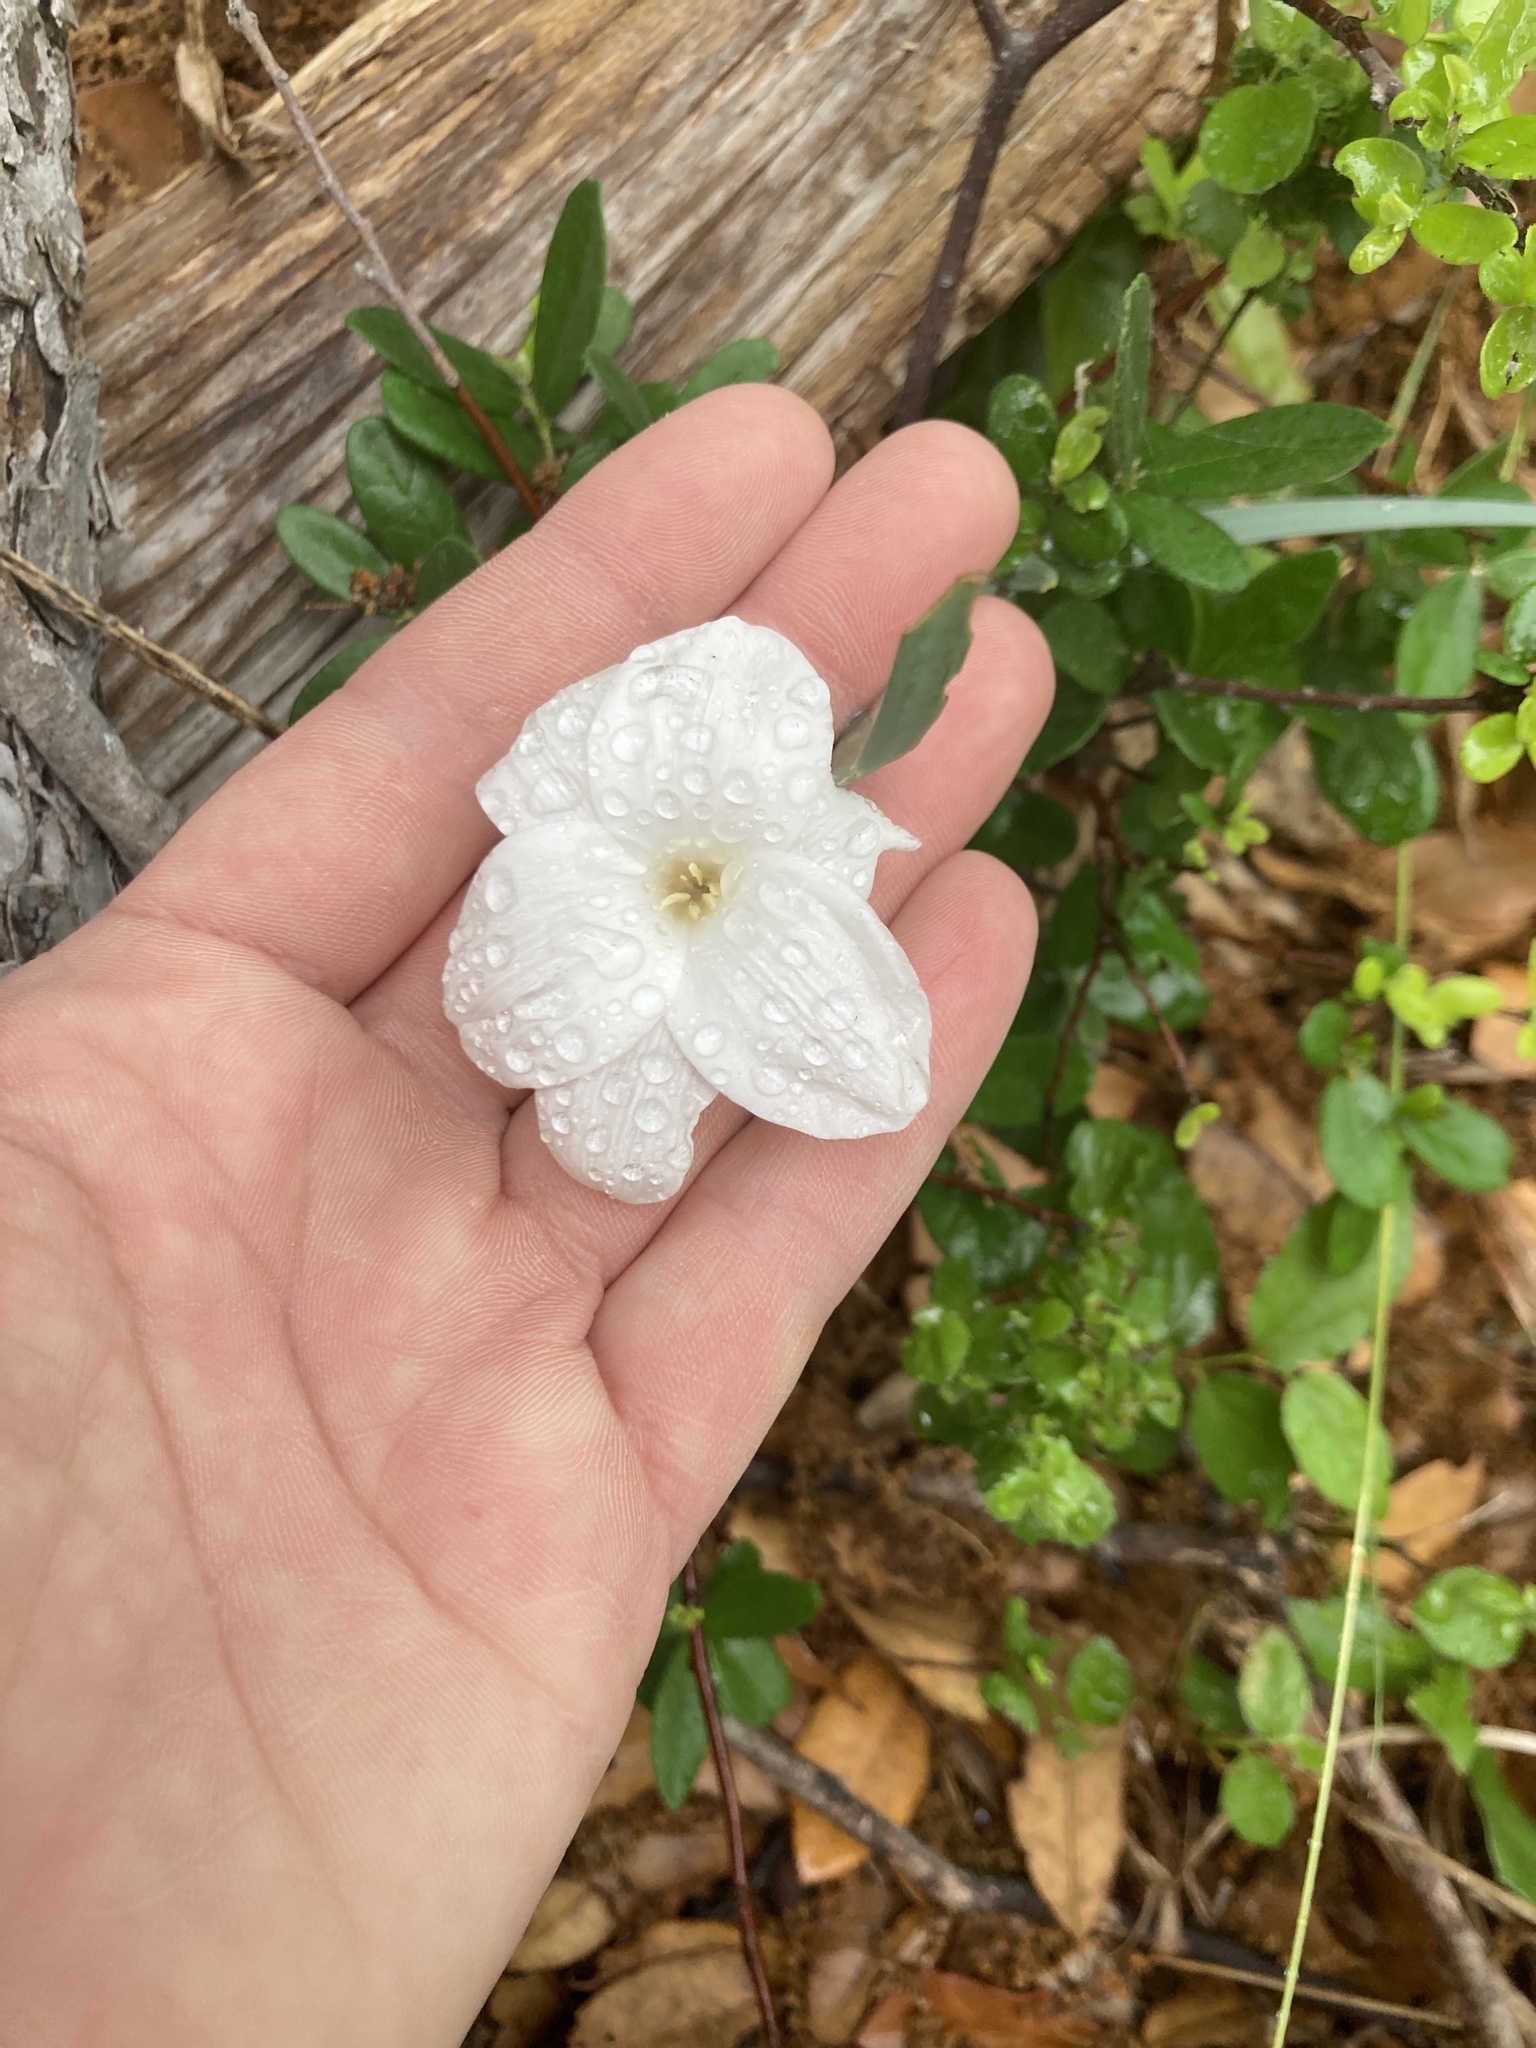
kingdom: Plantae
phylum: Tracheophyta
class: Liliopsida
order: Asparagales
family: Amaryllidaceae
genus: Zephyranthes
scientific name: Zephyranthes drummondii
